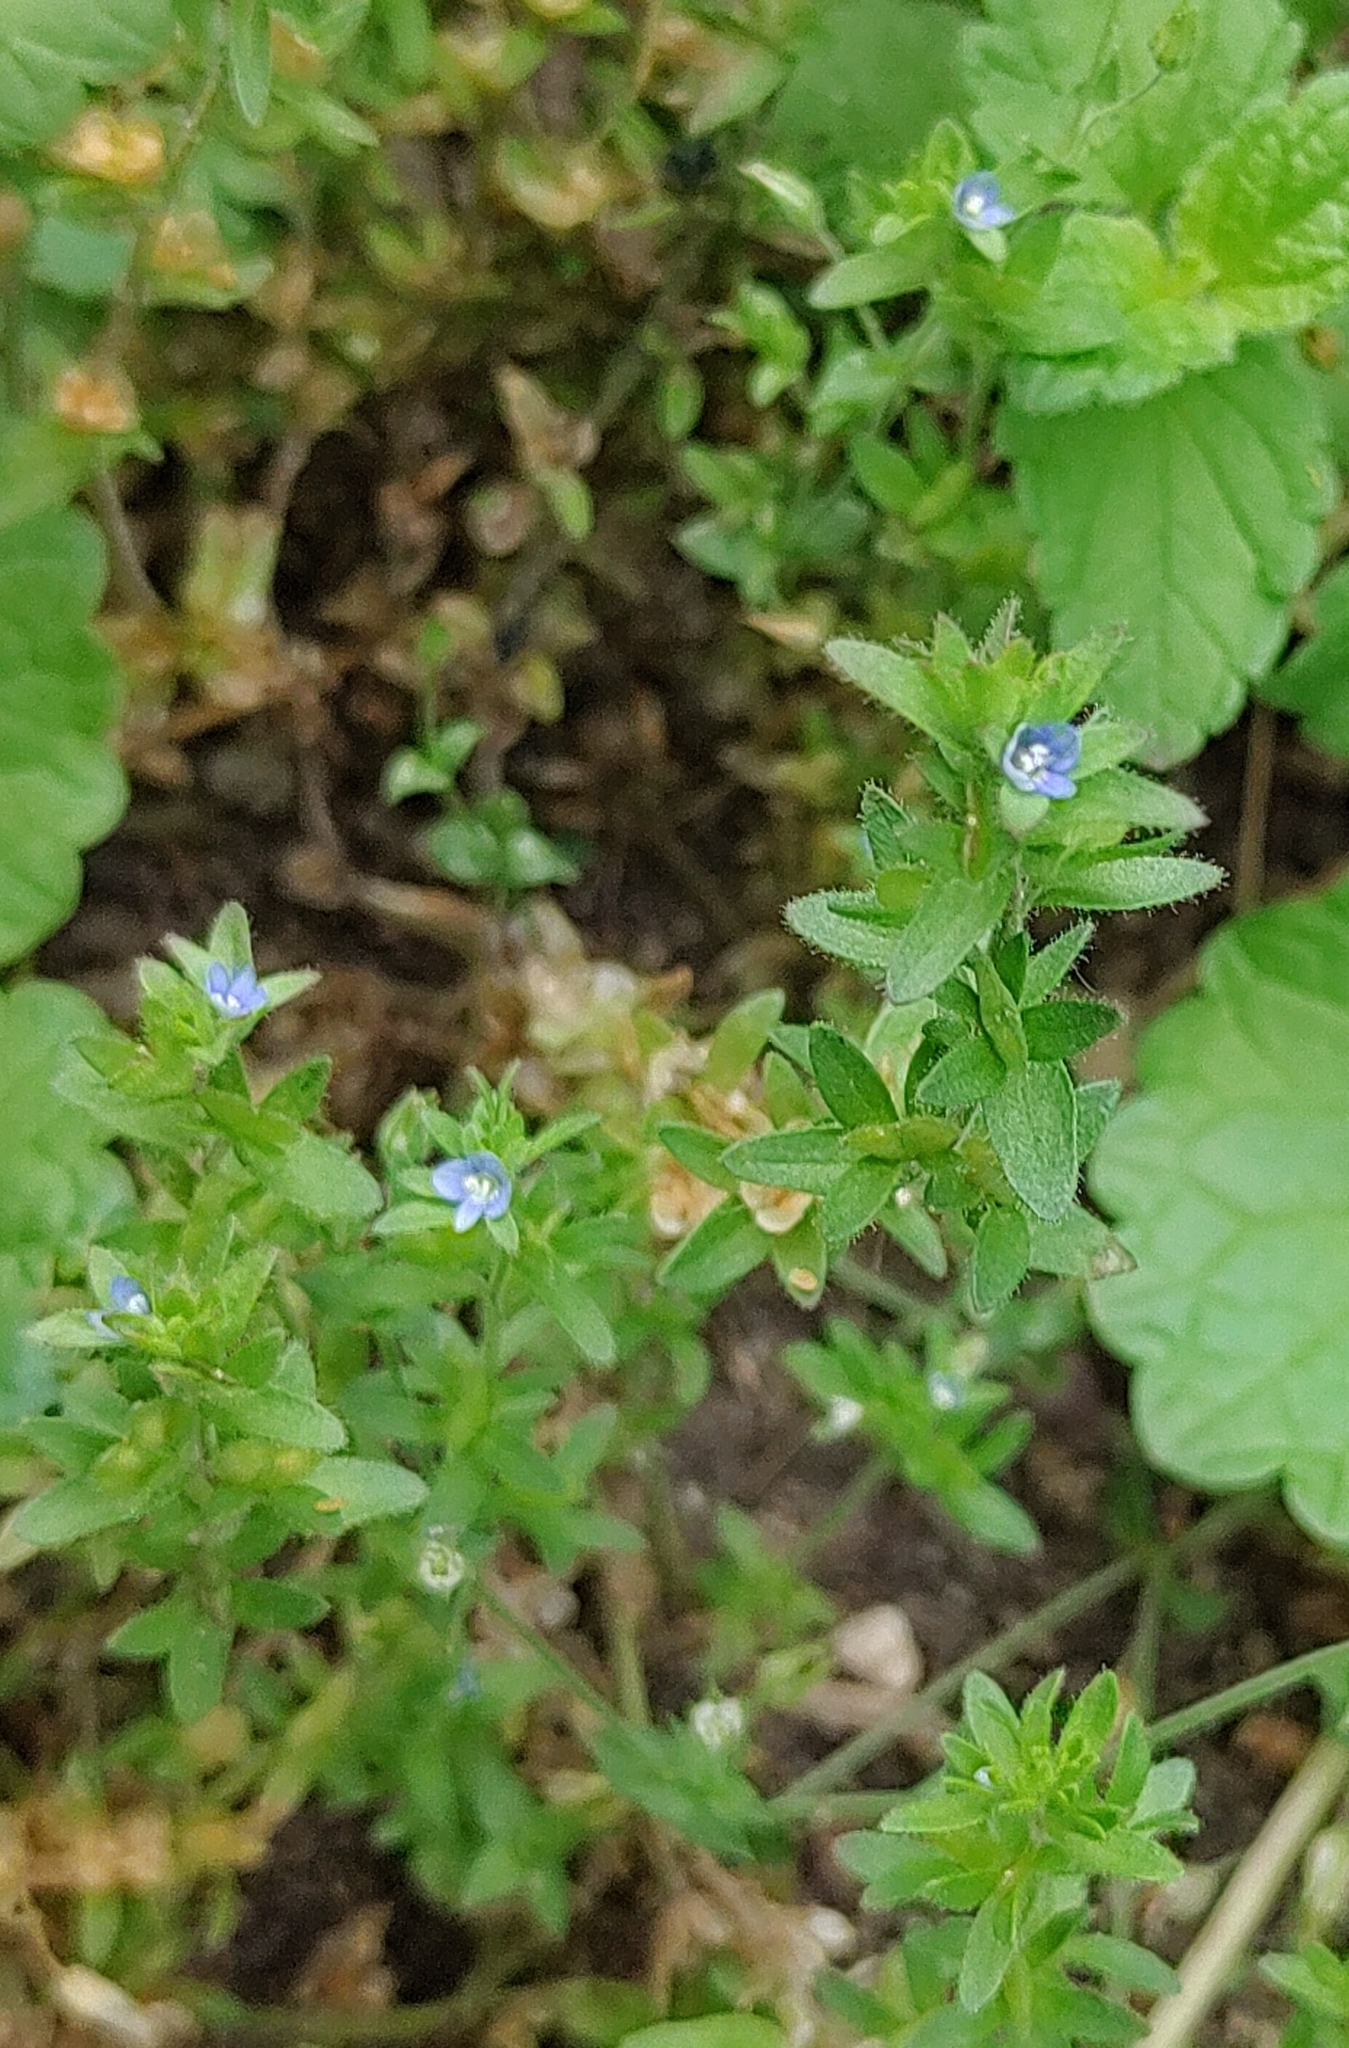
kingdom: Plantae
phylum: Tracheophyta
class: Magnoliopsida
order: Lamiales
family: Plantaginaceae
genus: Veronica
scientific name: Veronica arvensis
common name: Corn speedwell
